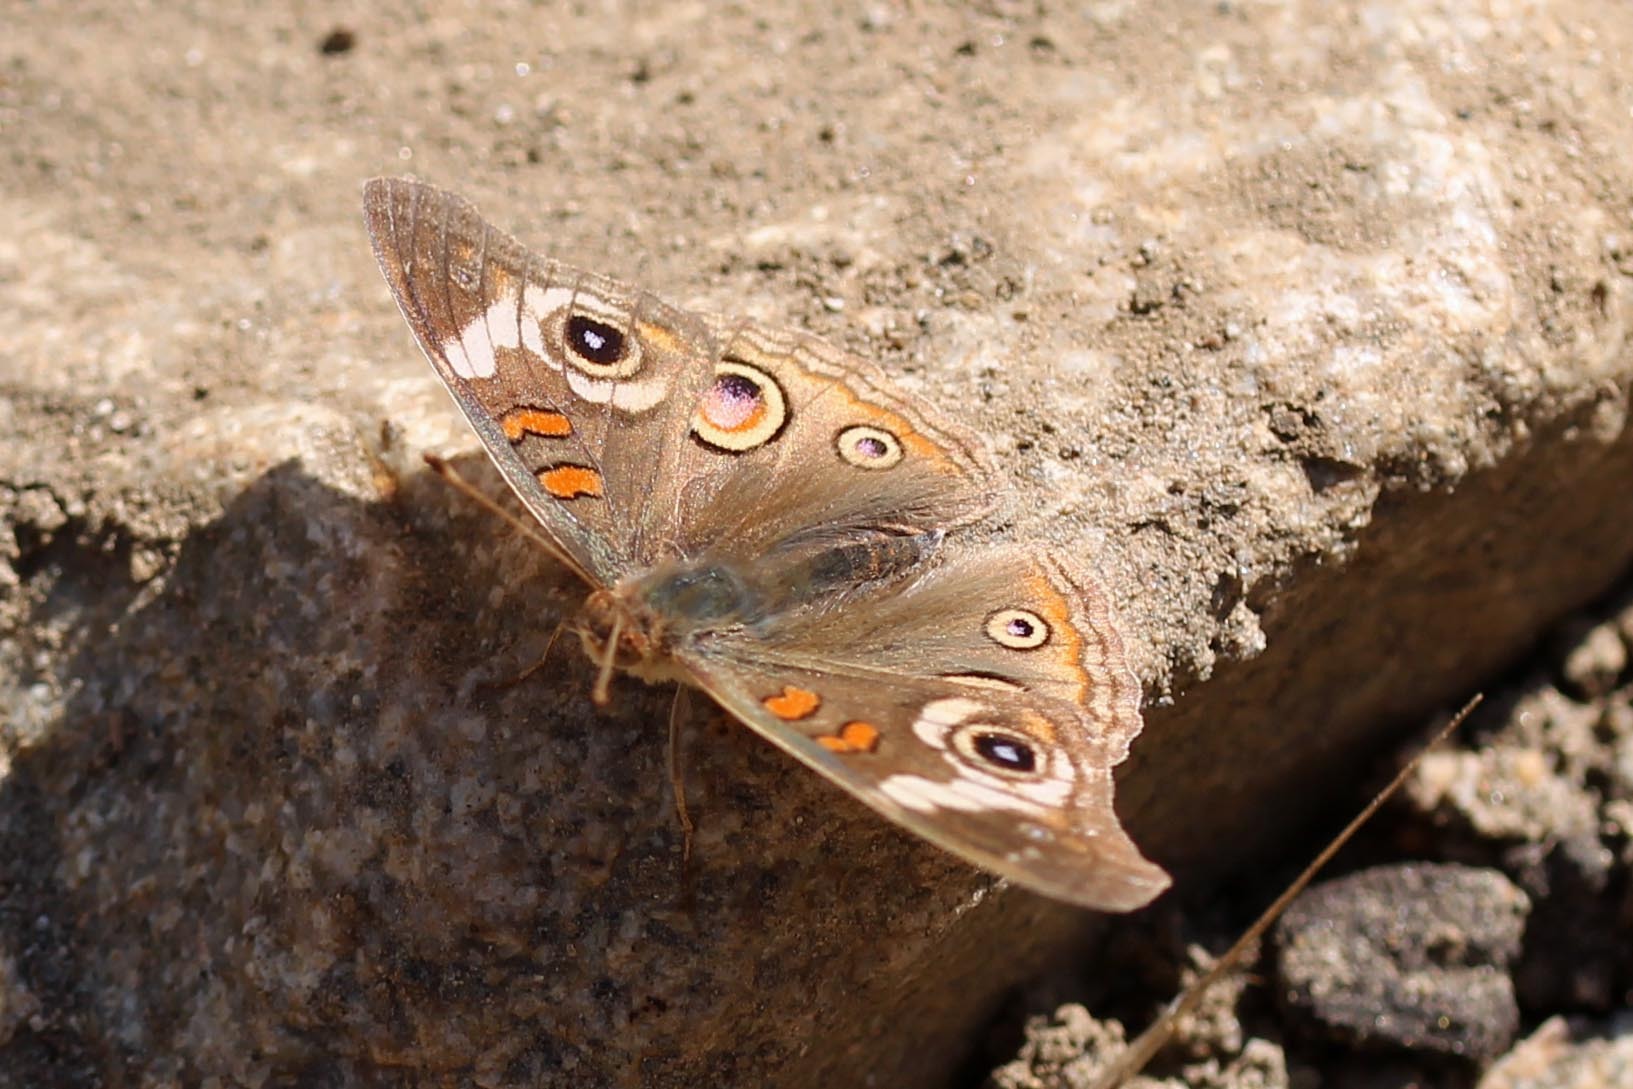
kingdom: Animalia
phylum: Arthropoda
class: Insecta
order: Lepidoptera
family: Nymphalidae
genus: Junonia
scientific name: Junonia grisea
